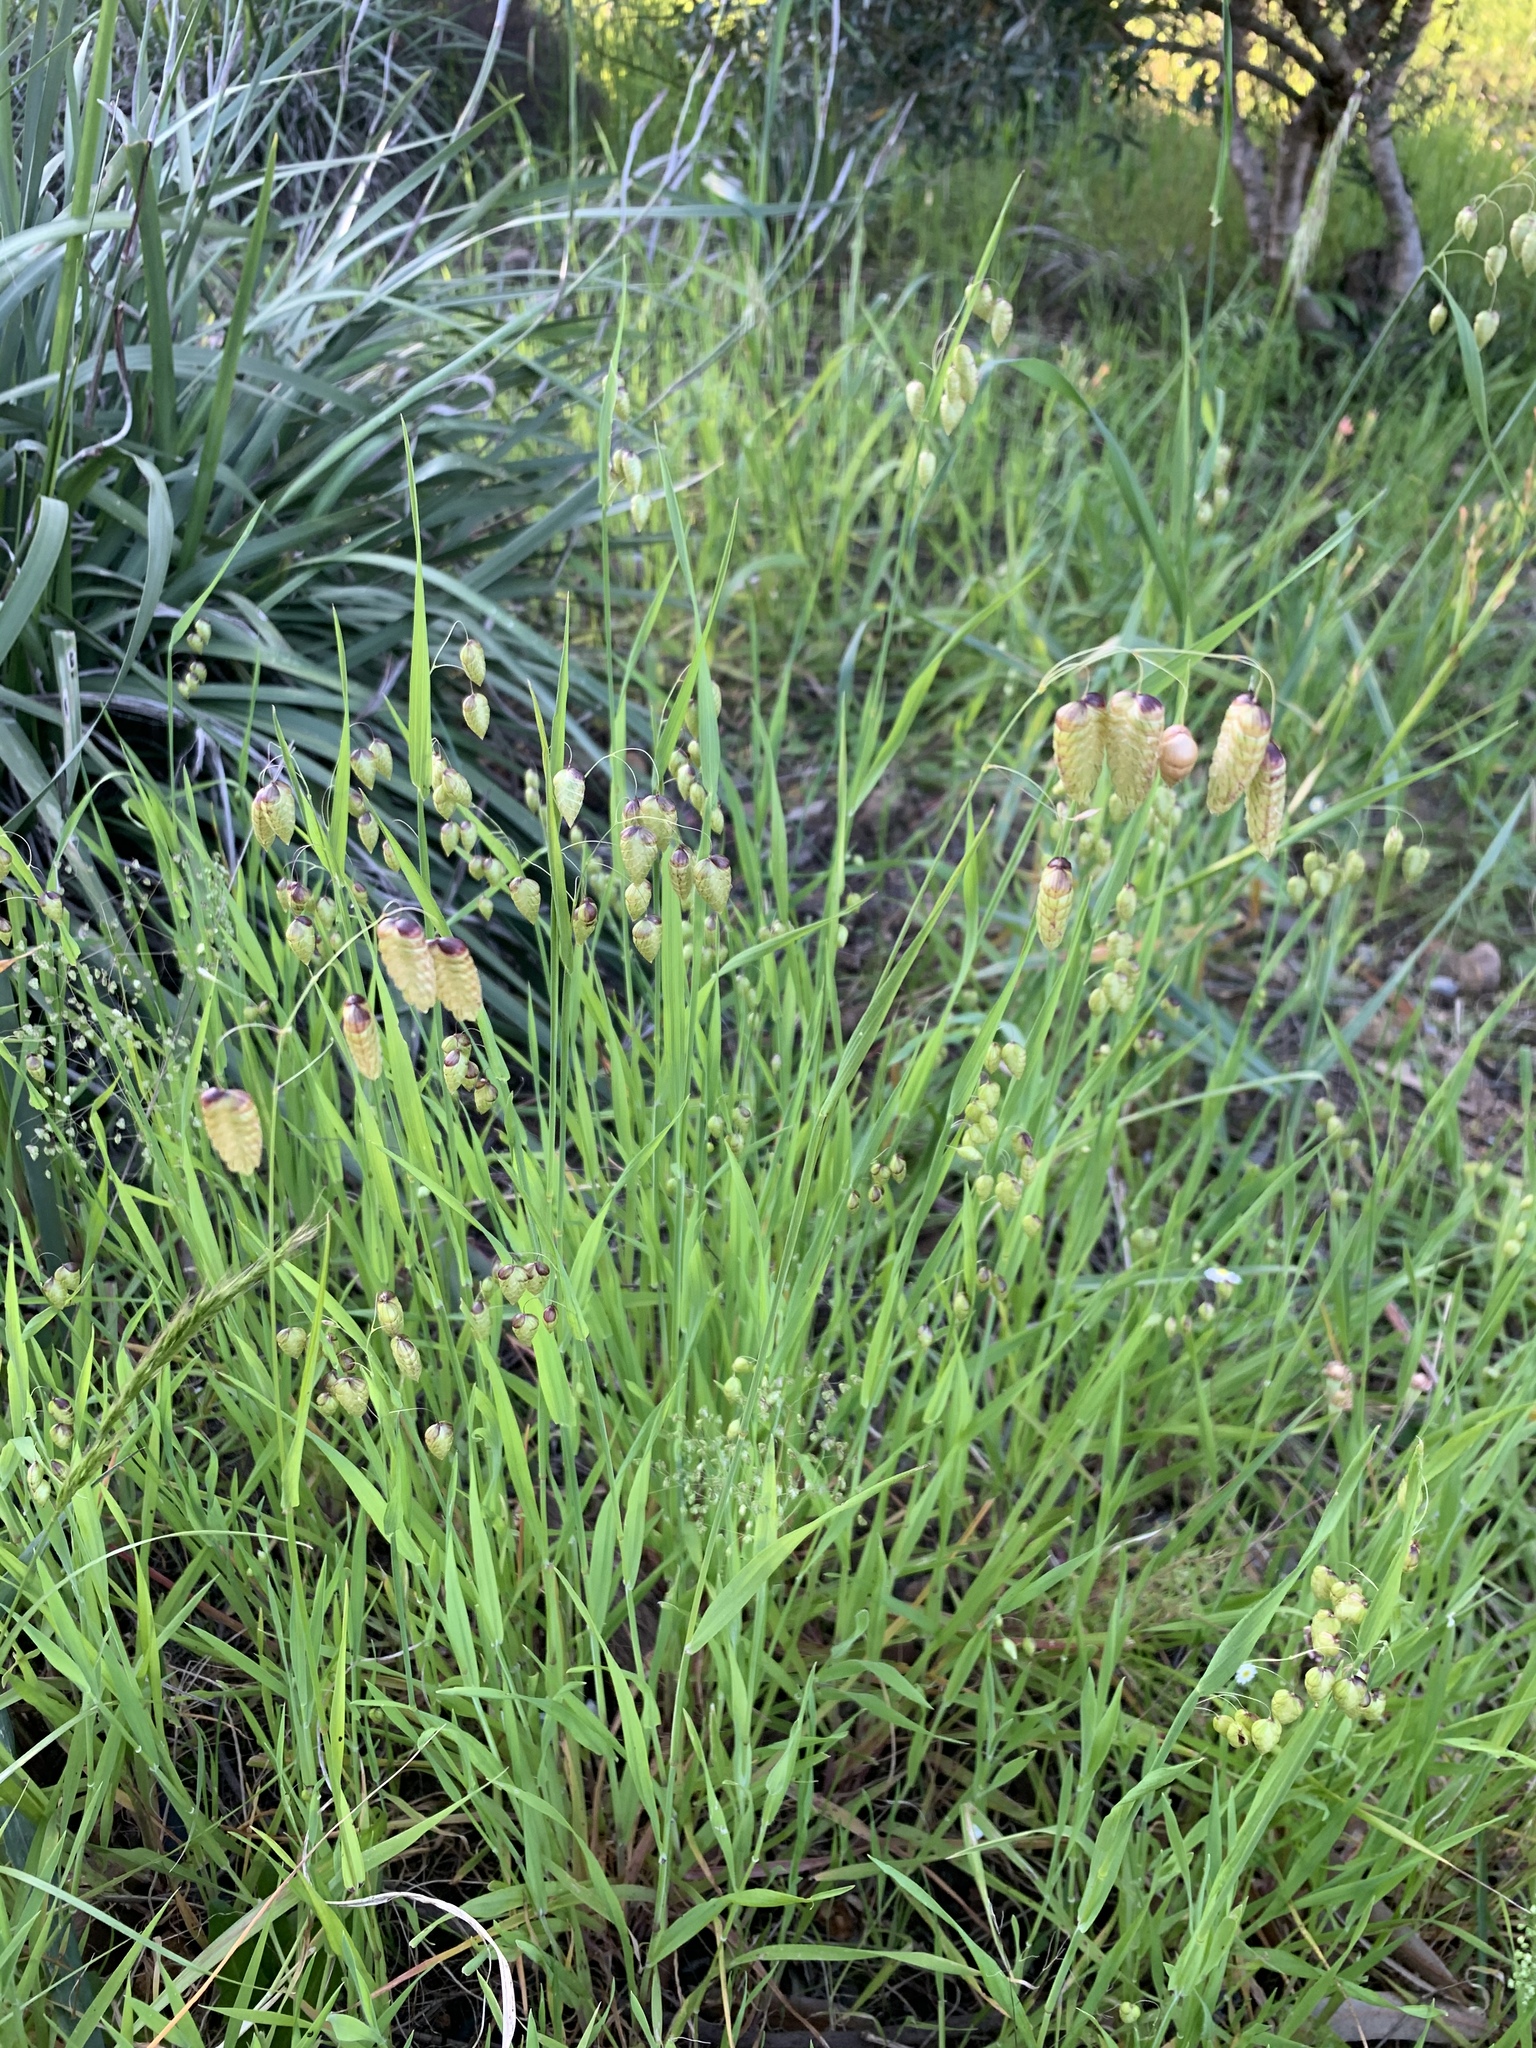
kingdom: Plantae
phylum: Tracheophyta
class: Liliopsida
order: Poales
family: Poaceae
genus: Briza
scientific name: Briza maxima
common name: Big quakinggrass
